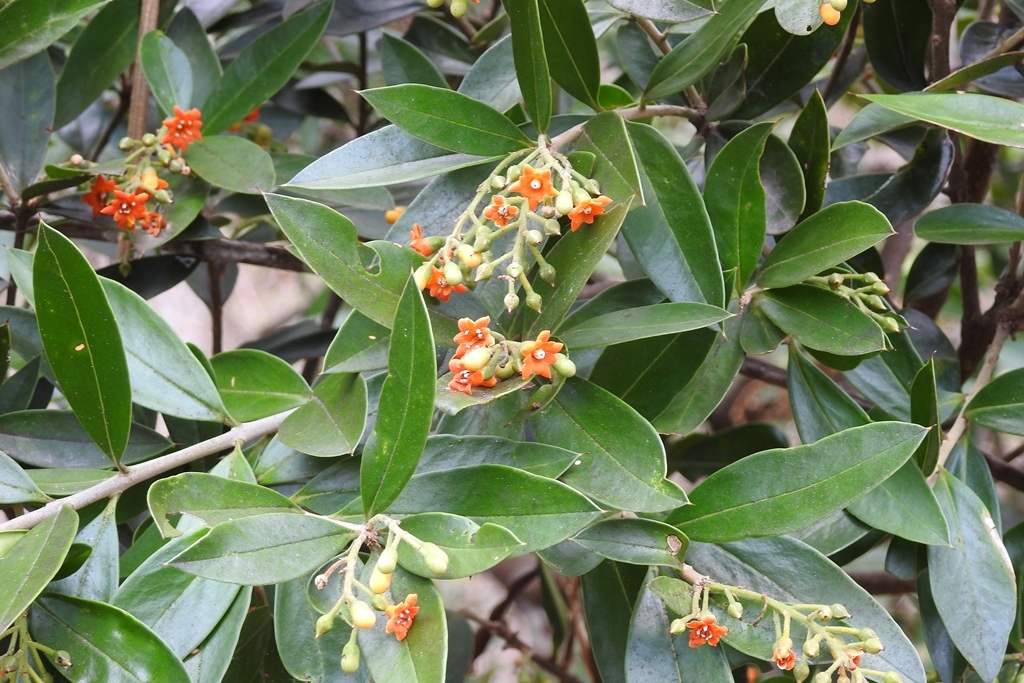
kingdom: Plantae
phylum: Tracheophyta
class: Magnoliopsida
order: Ericales
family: Primulaceae
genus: Bonellia
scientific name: Bonellia macrocarpa
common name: Primrose
